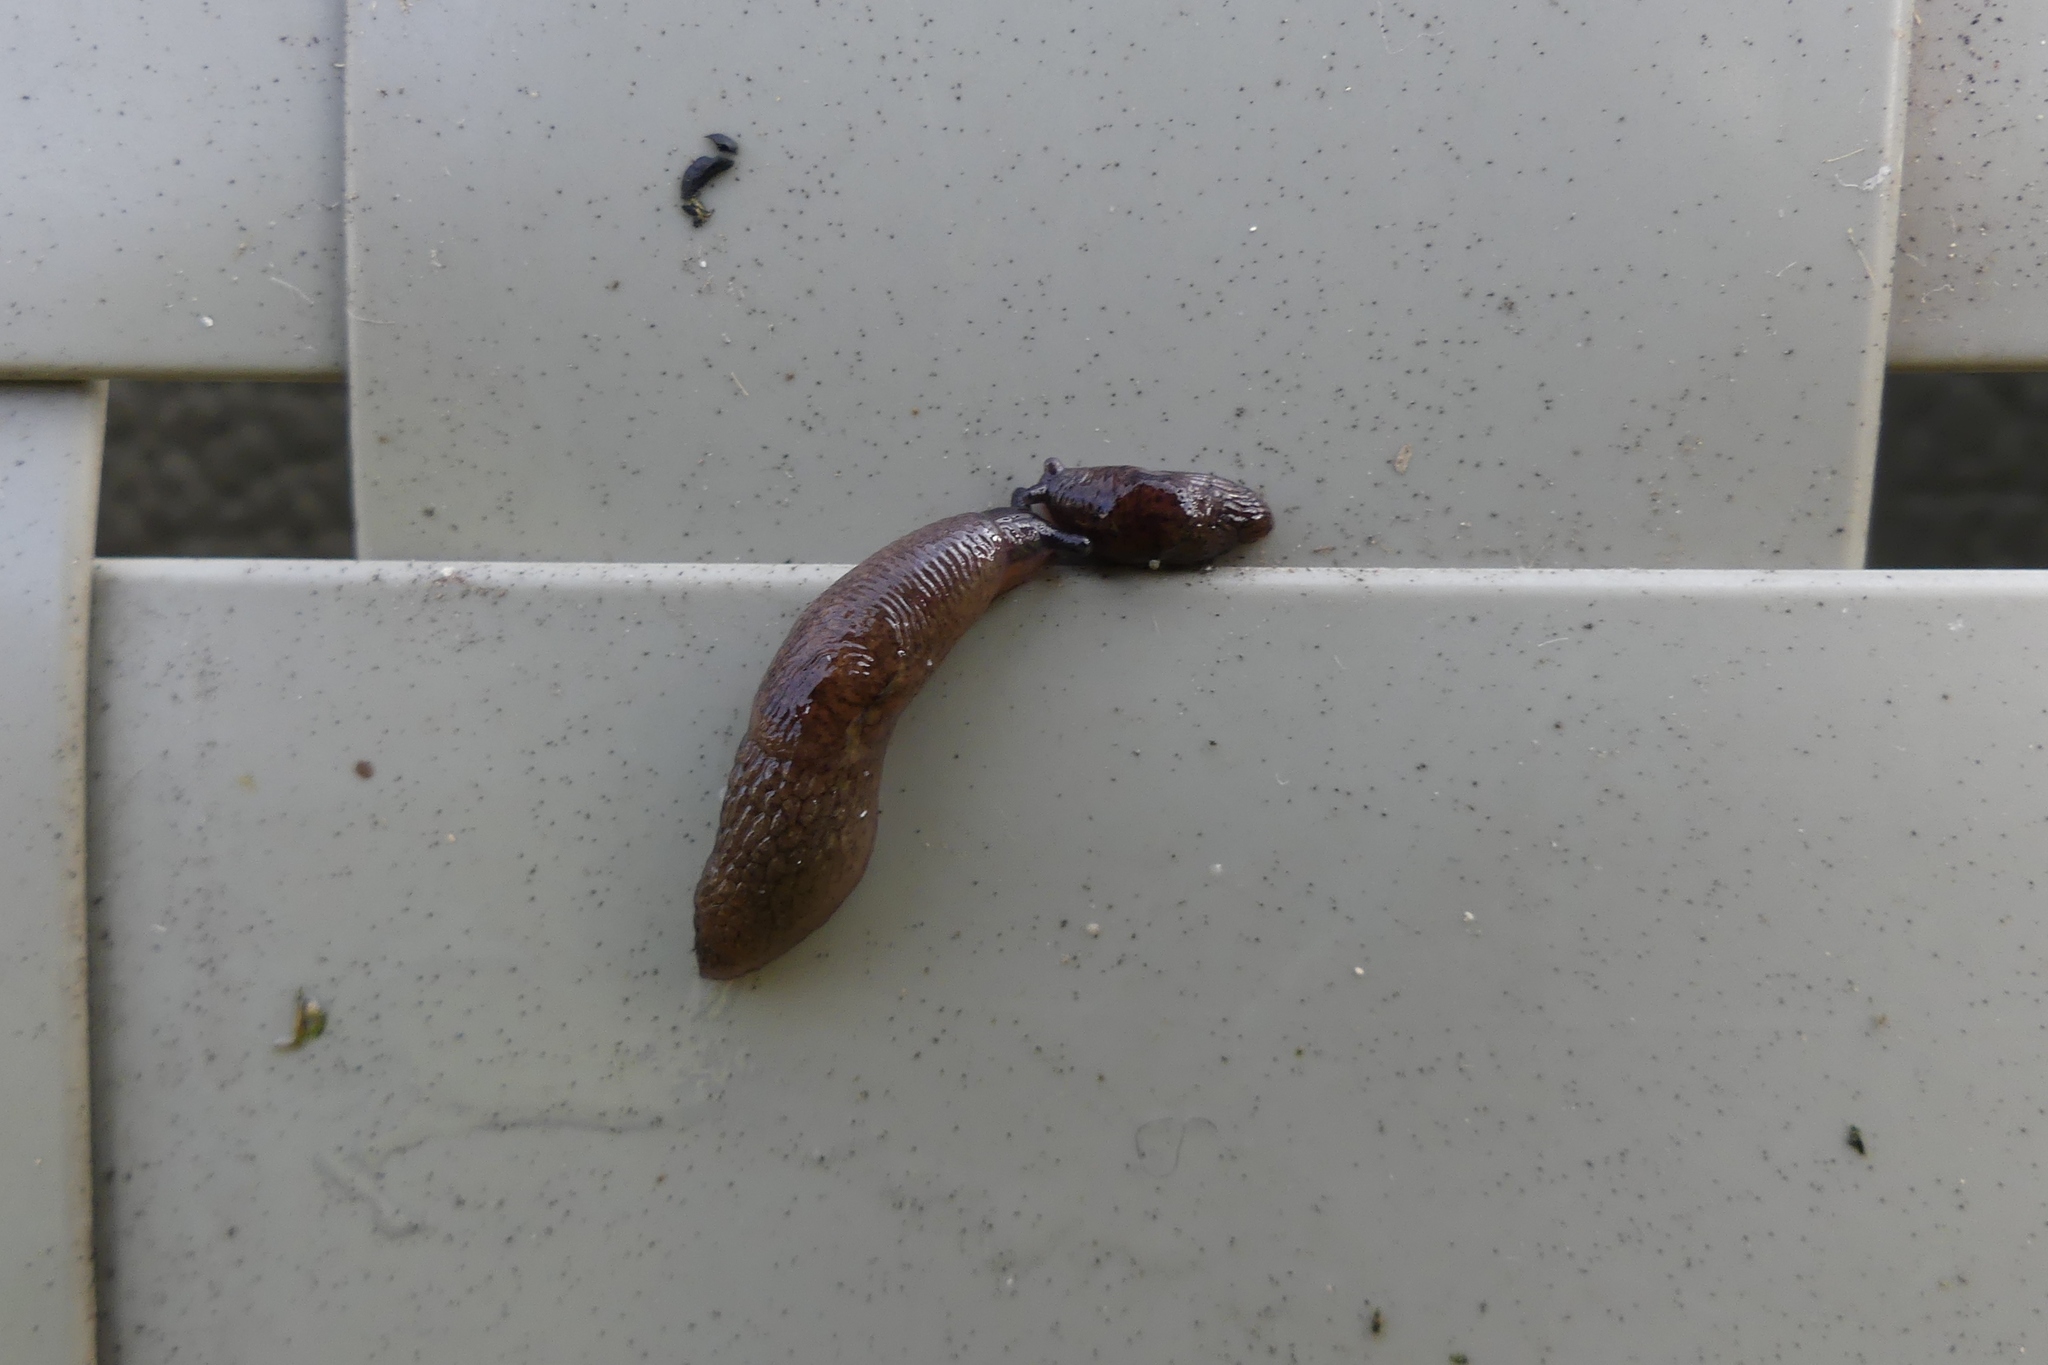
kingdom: Animalia
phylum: Mollusca
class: Gastropoda
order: Stylommatophora
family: Agriolimacidae
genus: Deroceras
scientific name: Deroceras reticulatum
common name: Gray field slug
